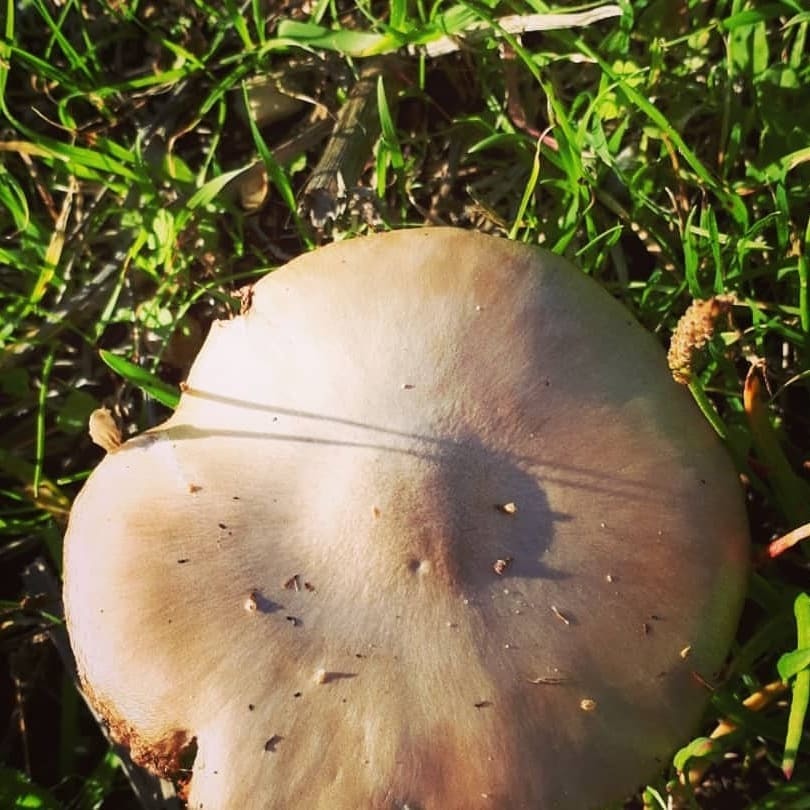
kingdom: Fungi
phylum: Basidiomycota
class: Agaricomycetes
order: Agaricales
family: Pluteaceae
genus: Volvopluteus
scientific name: Volvopluteus gloiocephalus
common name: Stubble rosegill
